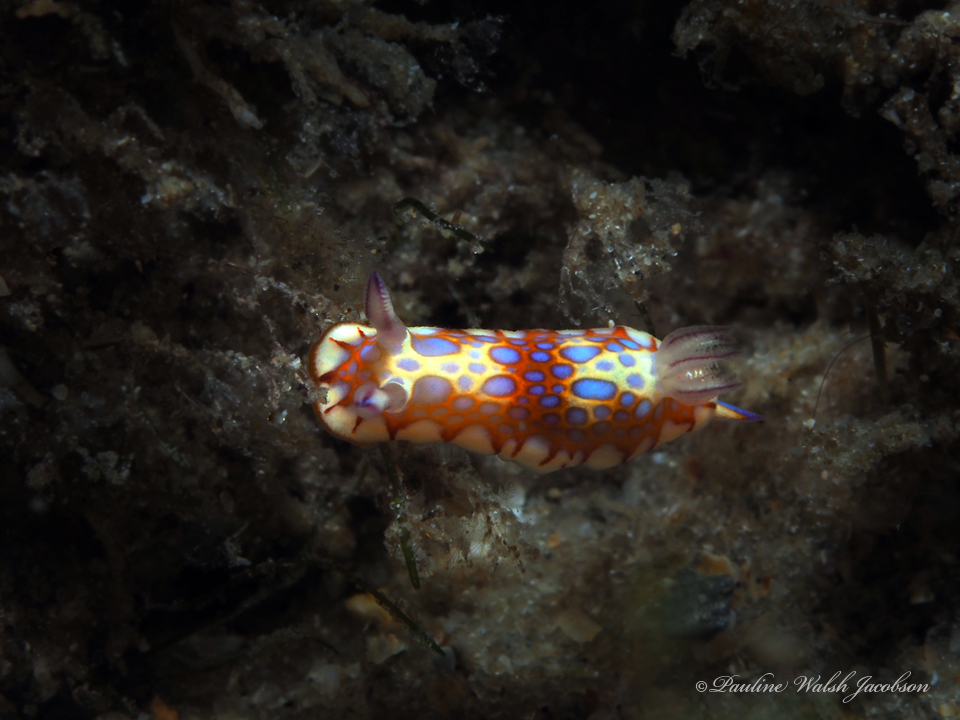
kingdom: Animalia
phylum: Mollusca
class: Gastropoda
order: Nudibranchia
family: Chromodorididae
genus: Felimida
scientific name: Felimida binza
